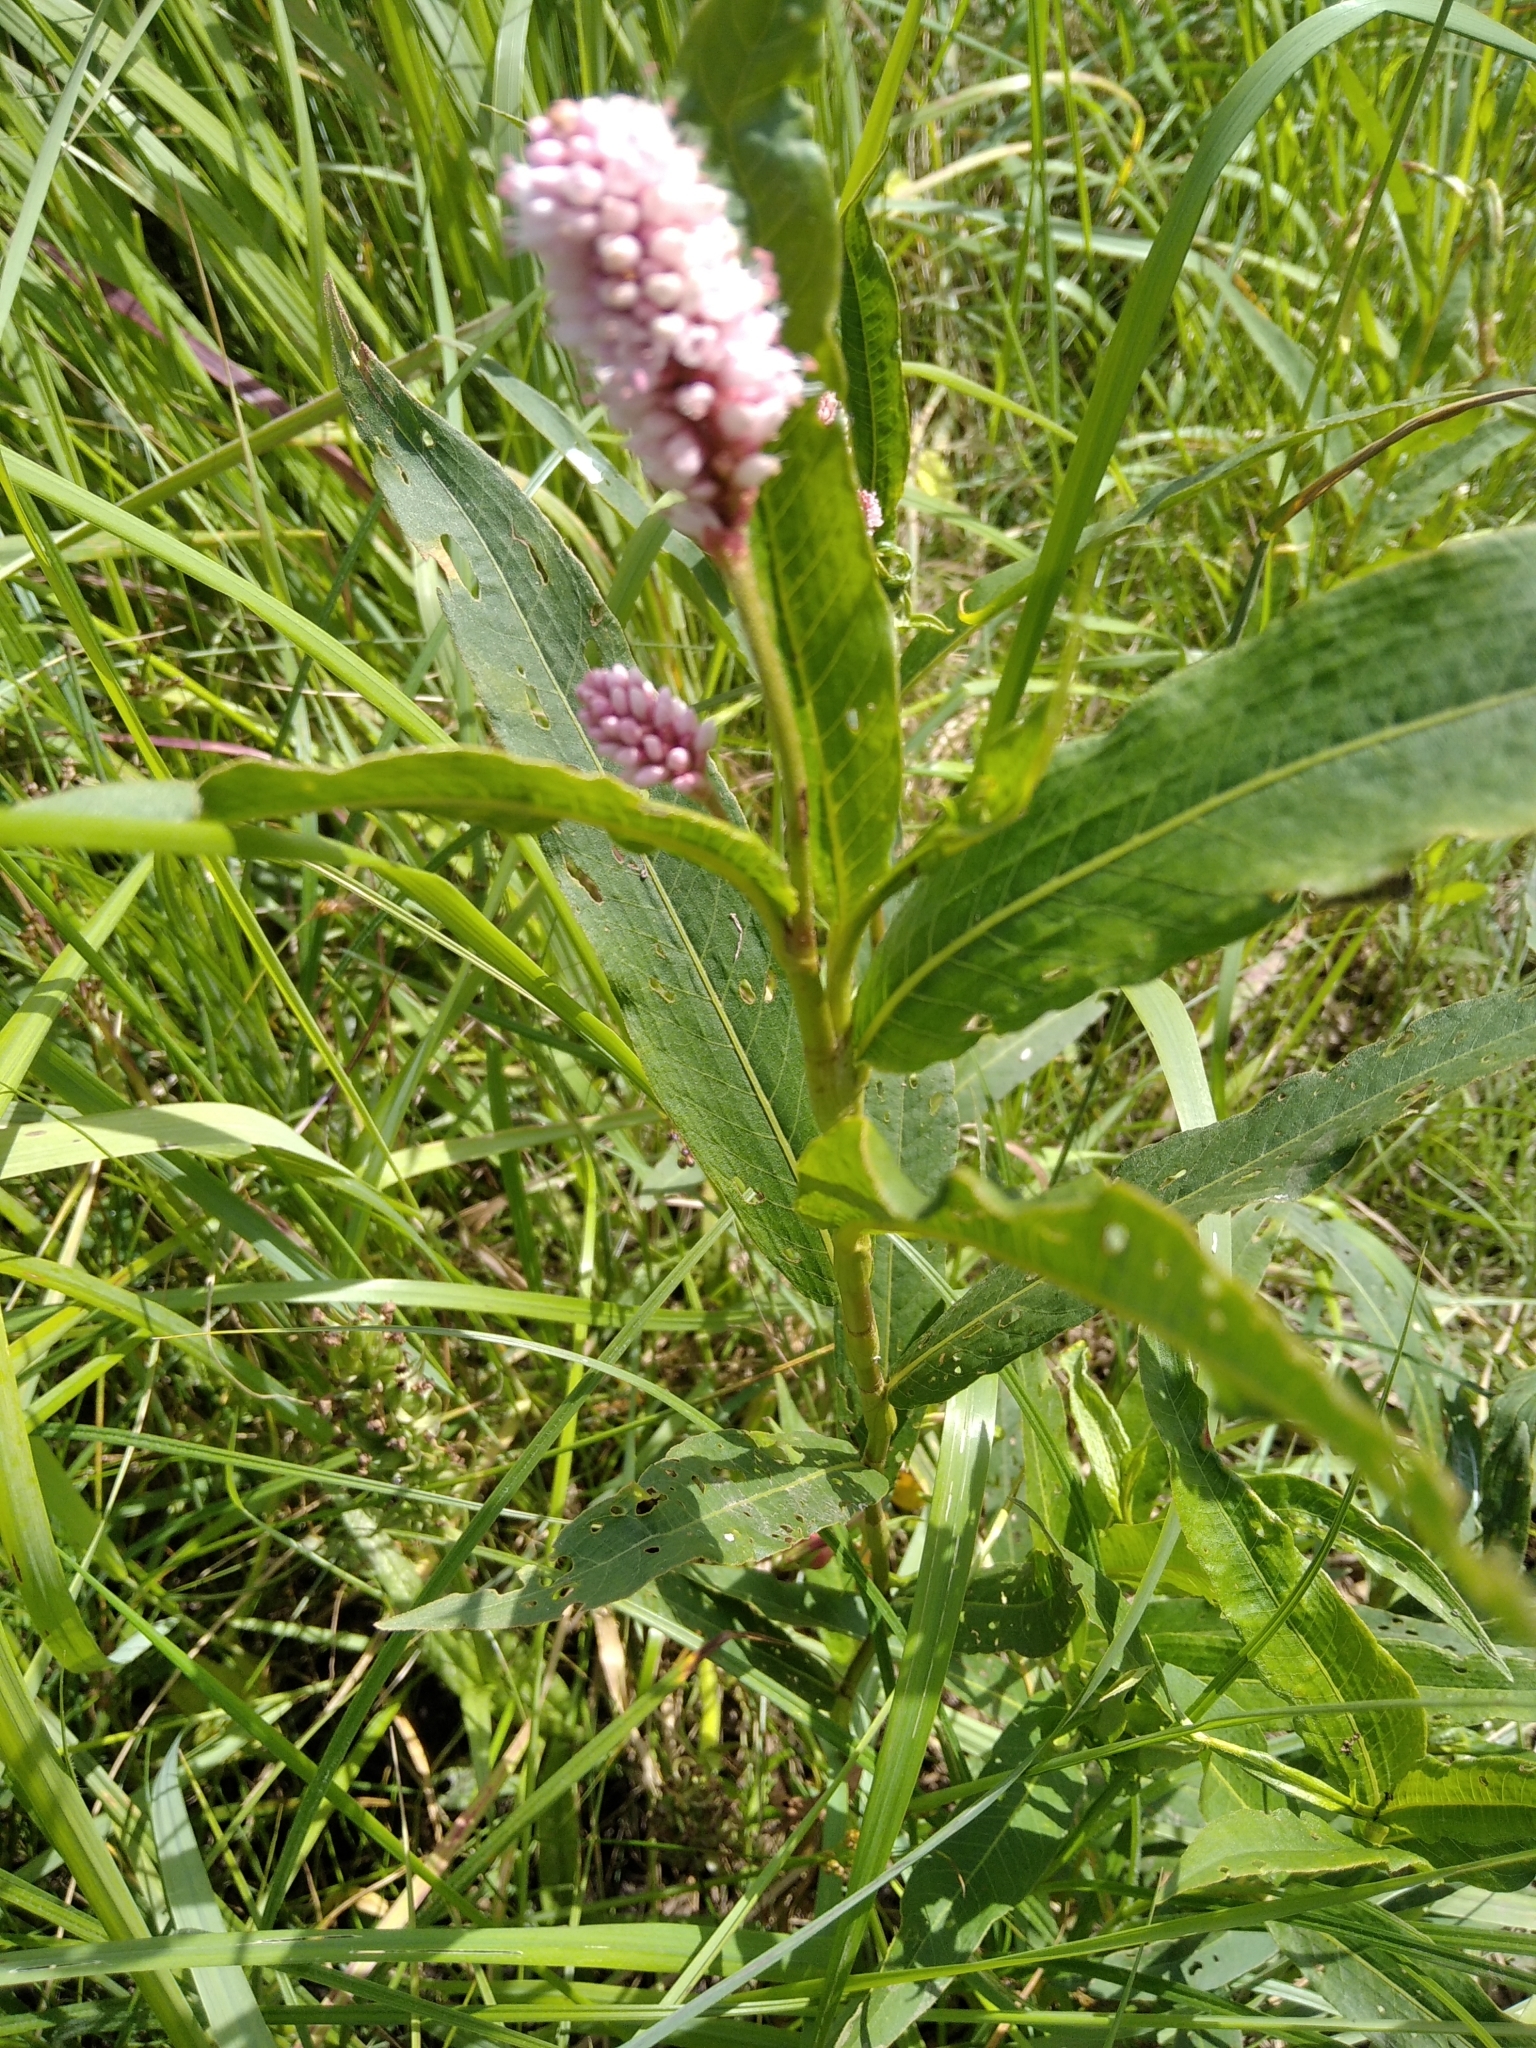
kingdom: Plantae
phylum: Tracheophyta
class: Magnoliopsida
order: Caryophyllales
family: Polygonaceae
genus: Persicaria
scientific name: Persicaria amphibia
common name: Amphibious bistort
